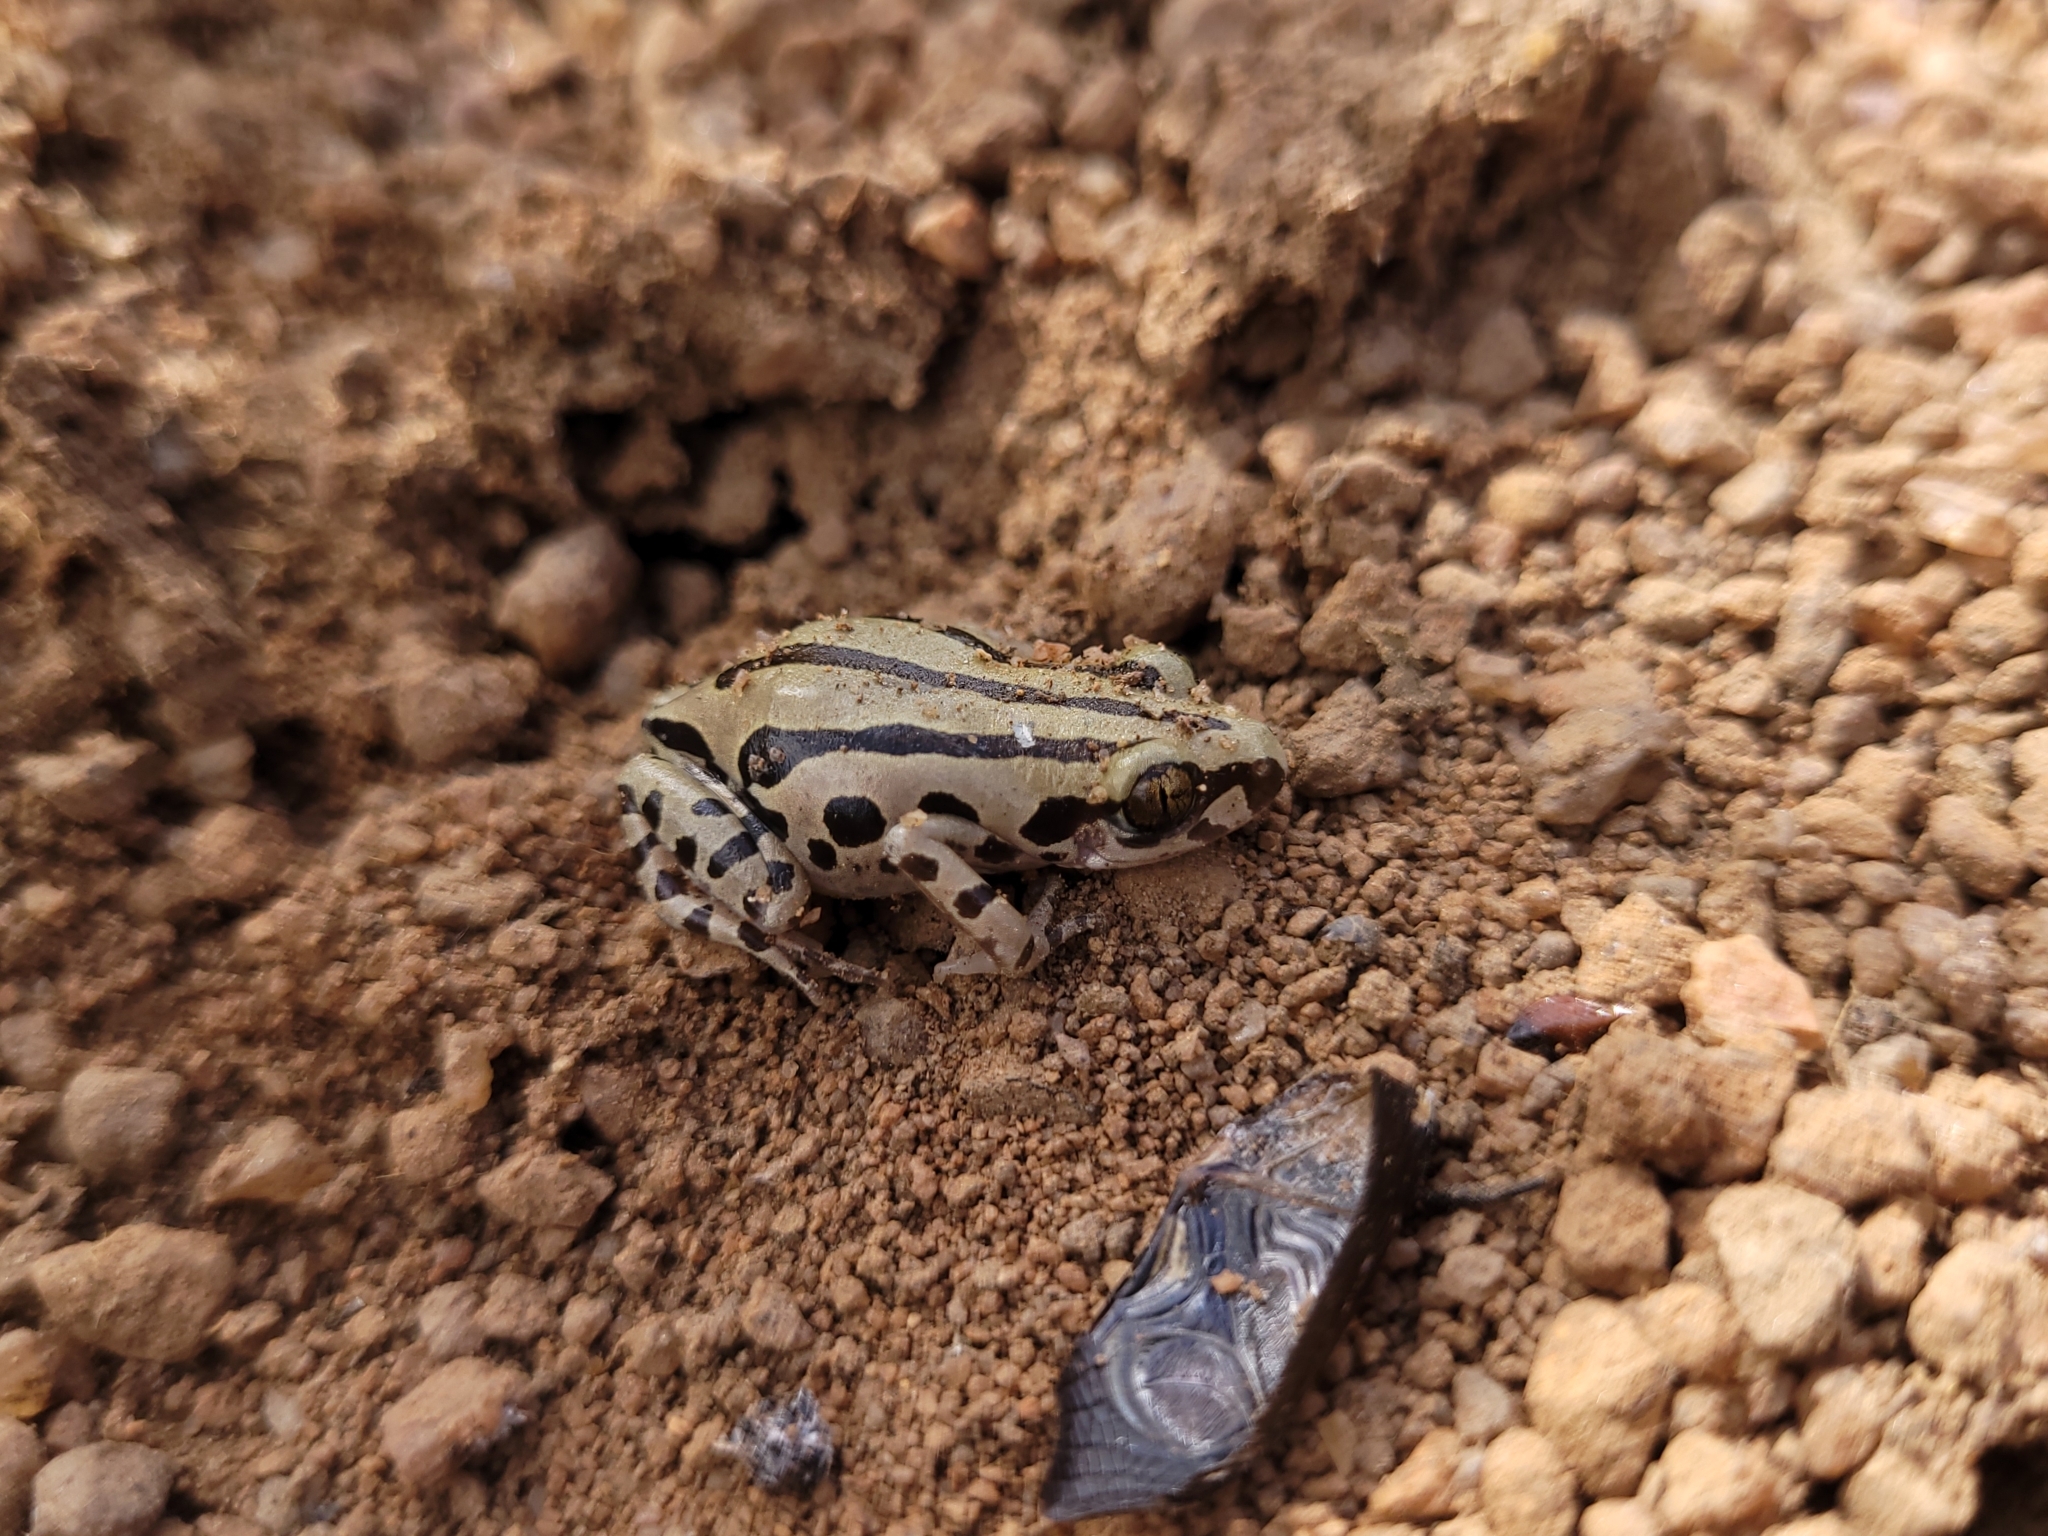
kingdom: Animalia
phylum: Chordata
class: Amphibia
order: Anura
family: Hyperoliidae
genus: Kassina
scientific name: Kassina senegalensis
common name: Senegal land frog
